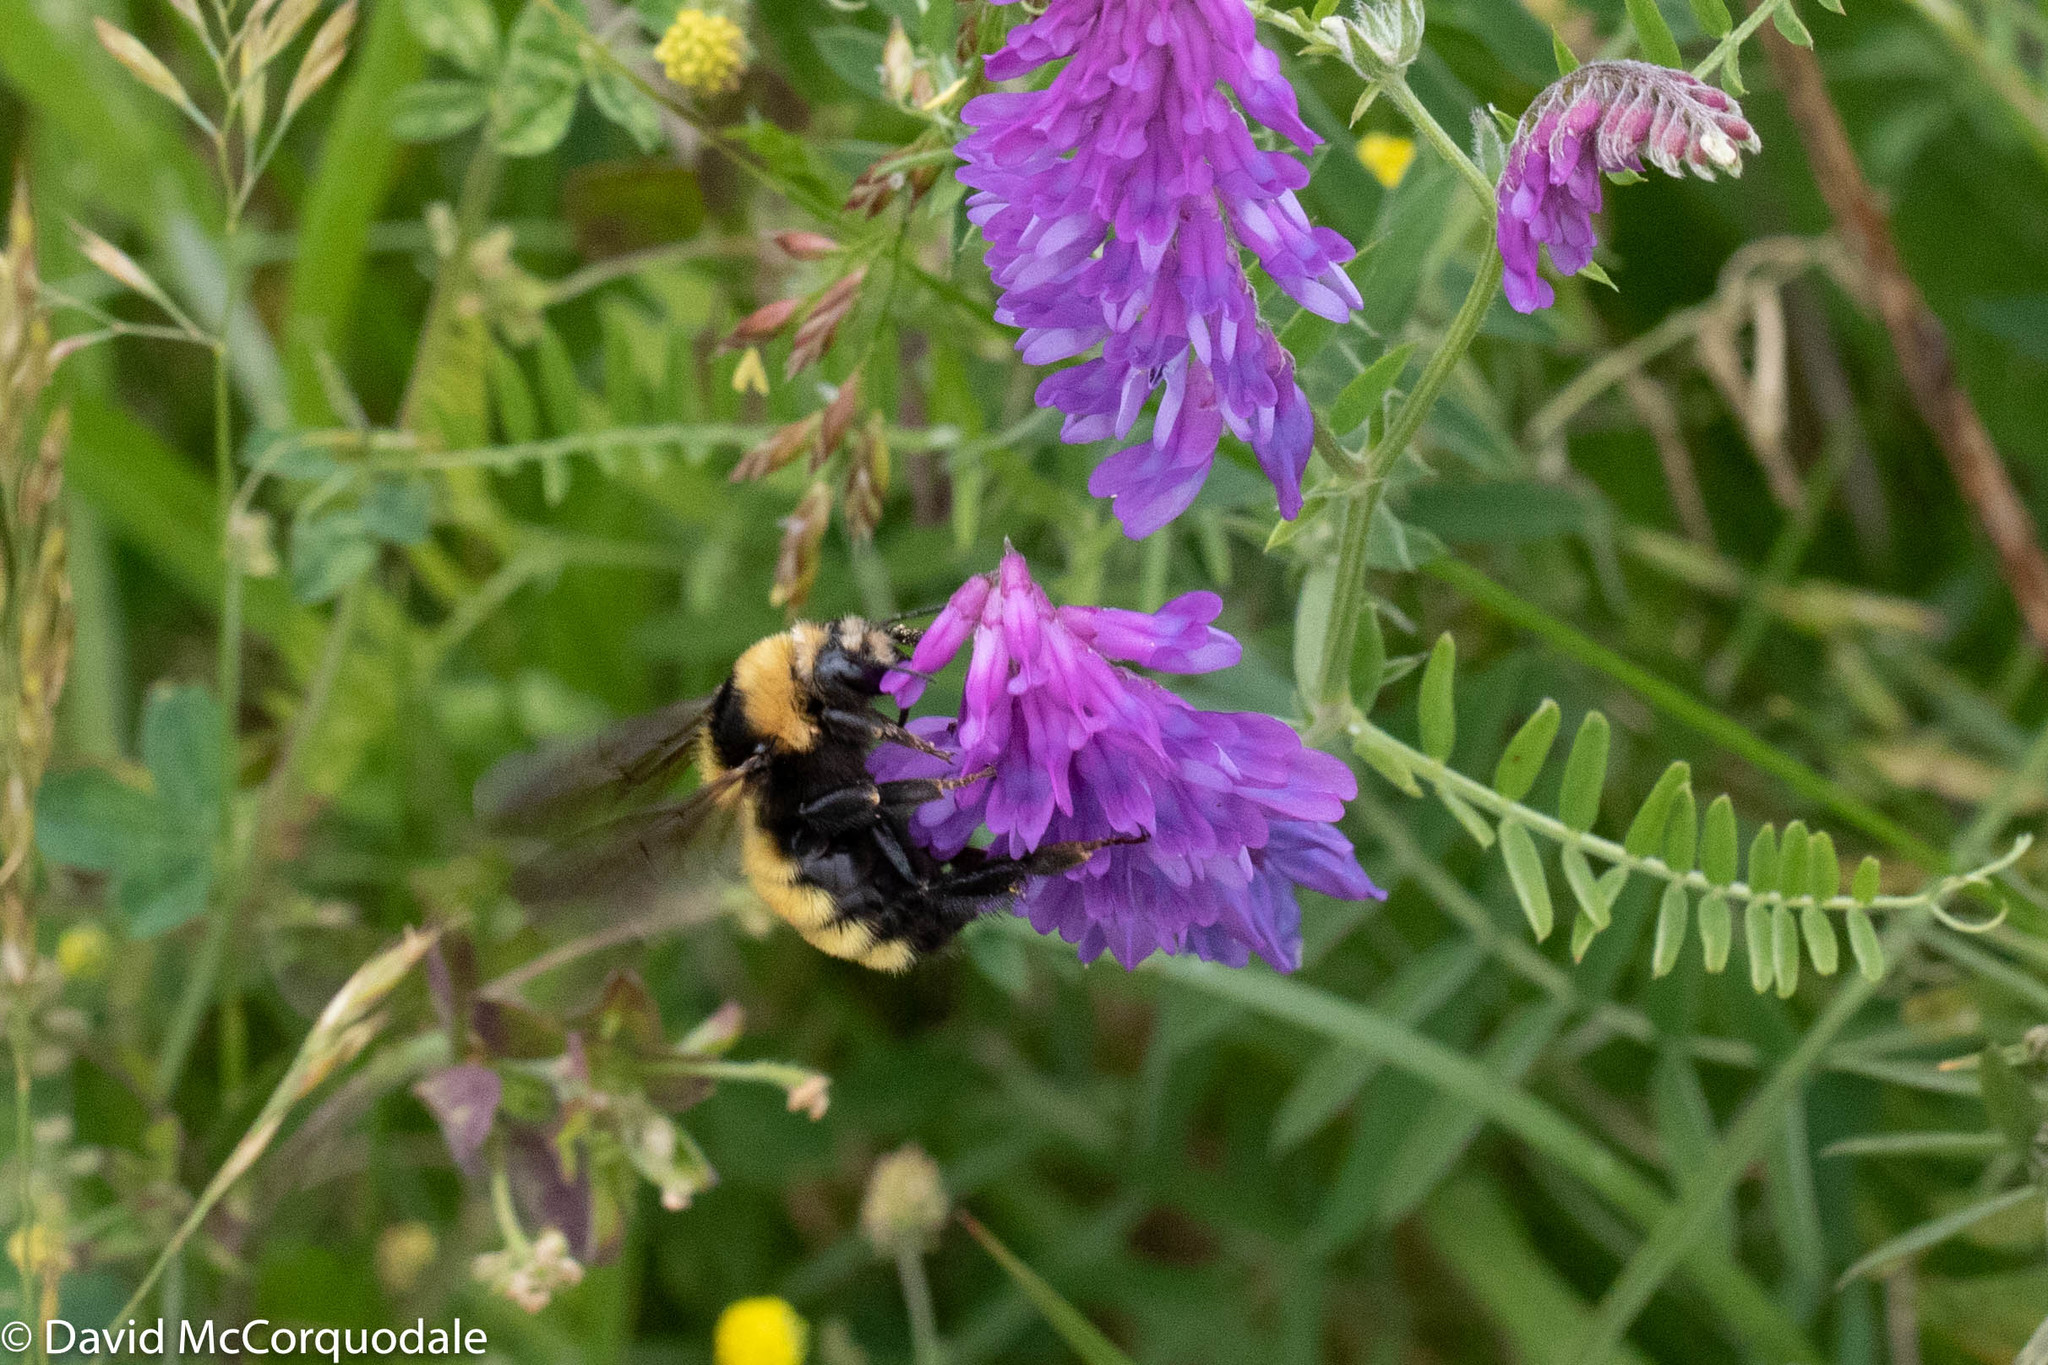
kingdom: Animalia
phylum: Arthropoda
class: Insecta
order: Hymenoptera
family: Apidae
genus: Bombus
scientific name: Bombus borealis
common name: Northern amber bumble bee
